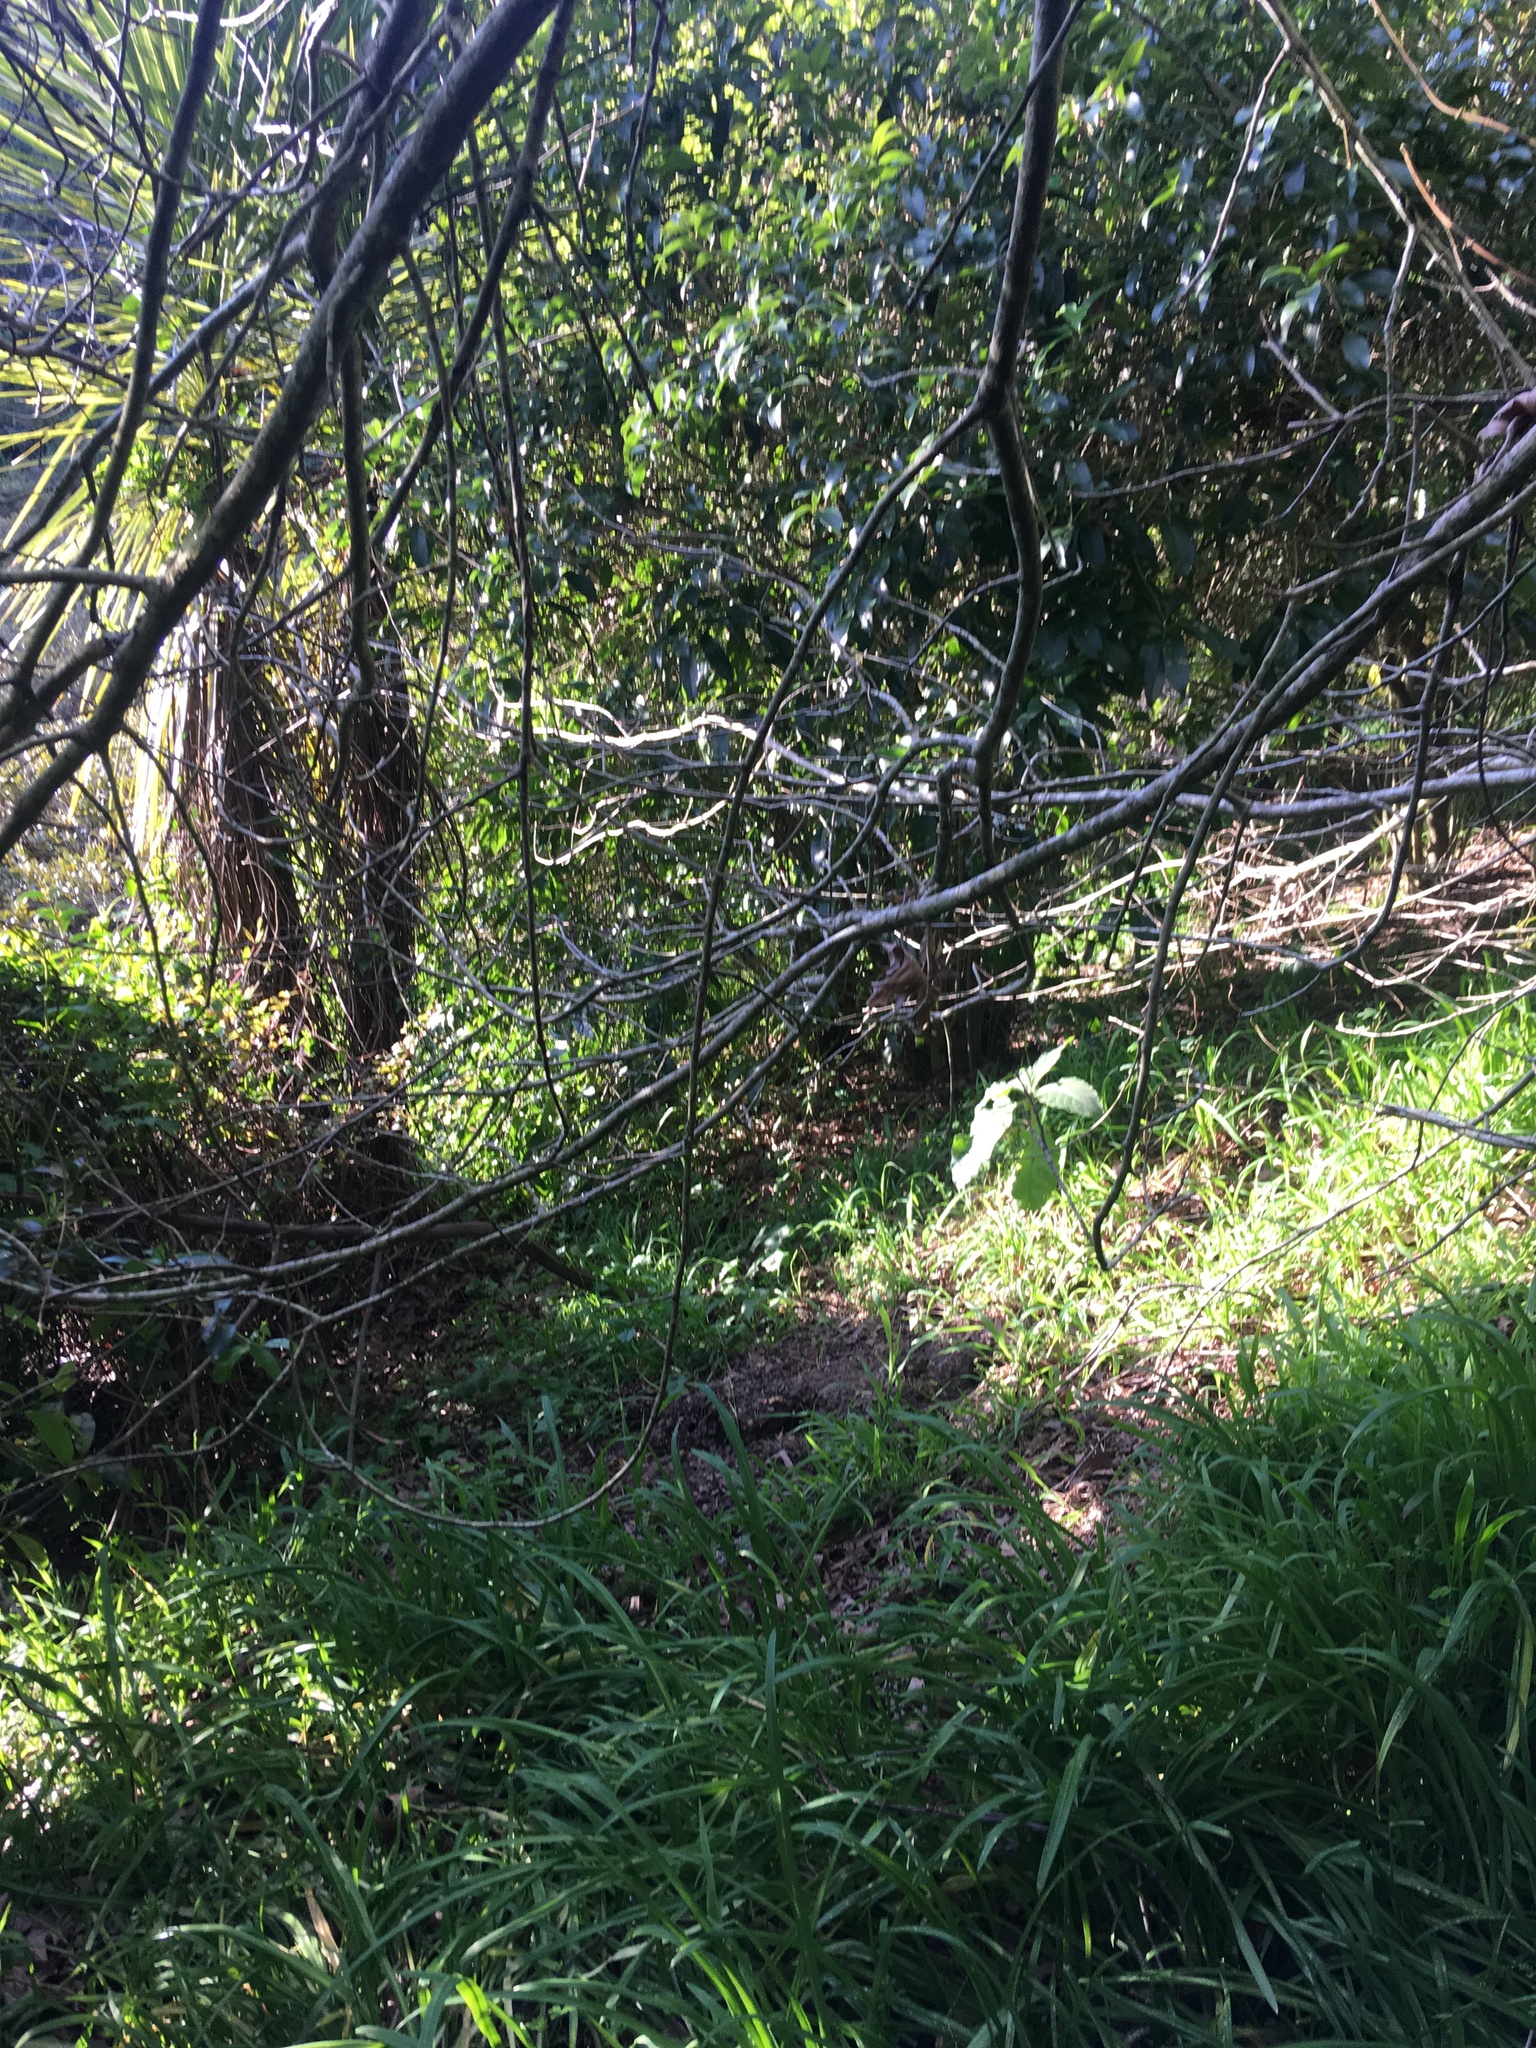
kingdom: Plantae
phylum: Tracheophyta
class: Liliopsida
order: Asparagales
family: Asparagaceae
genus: Cordyline
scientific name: Cordyline australis
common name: Cabbage-palm
